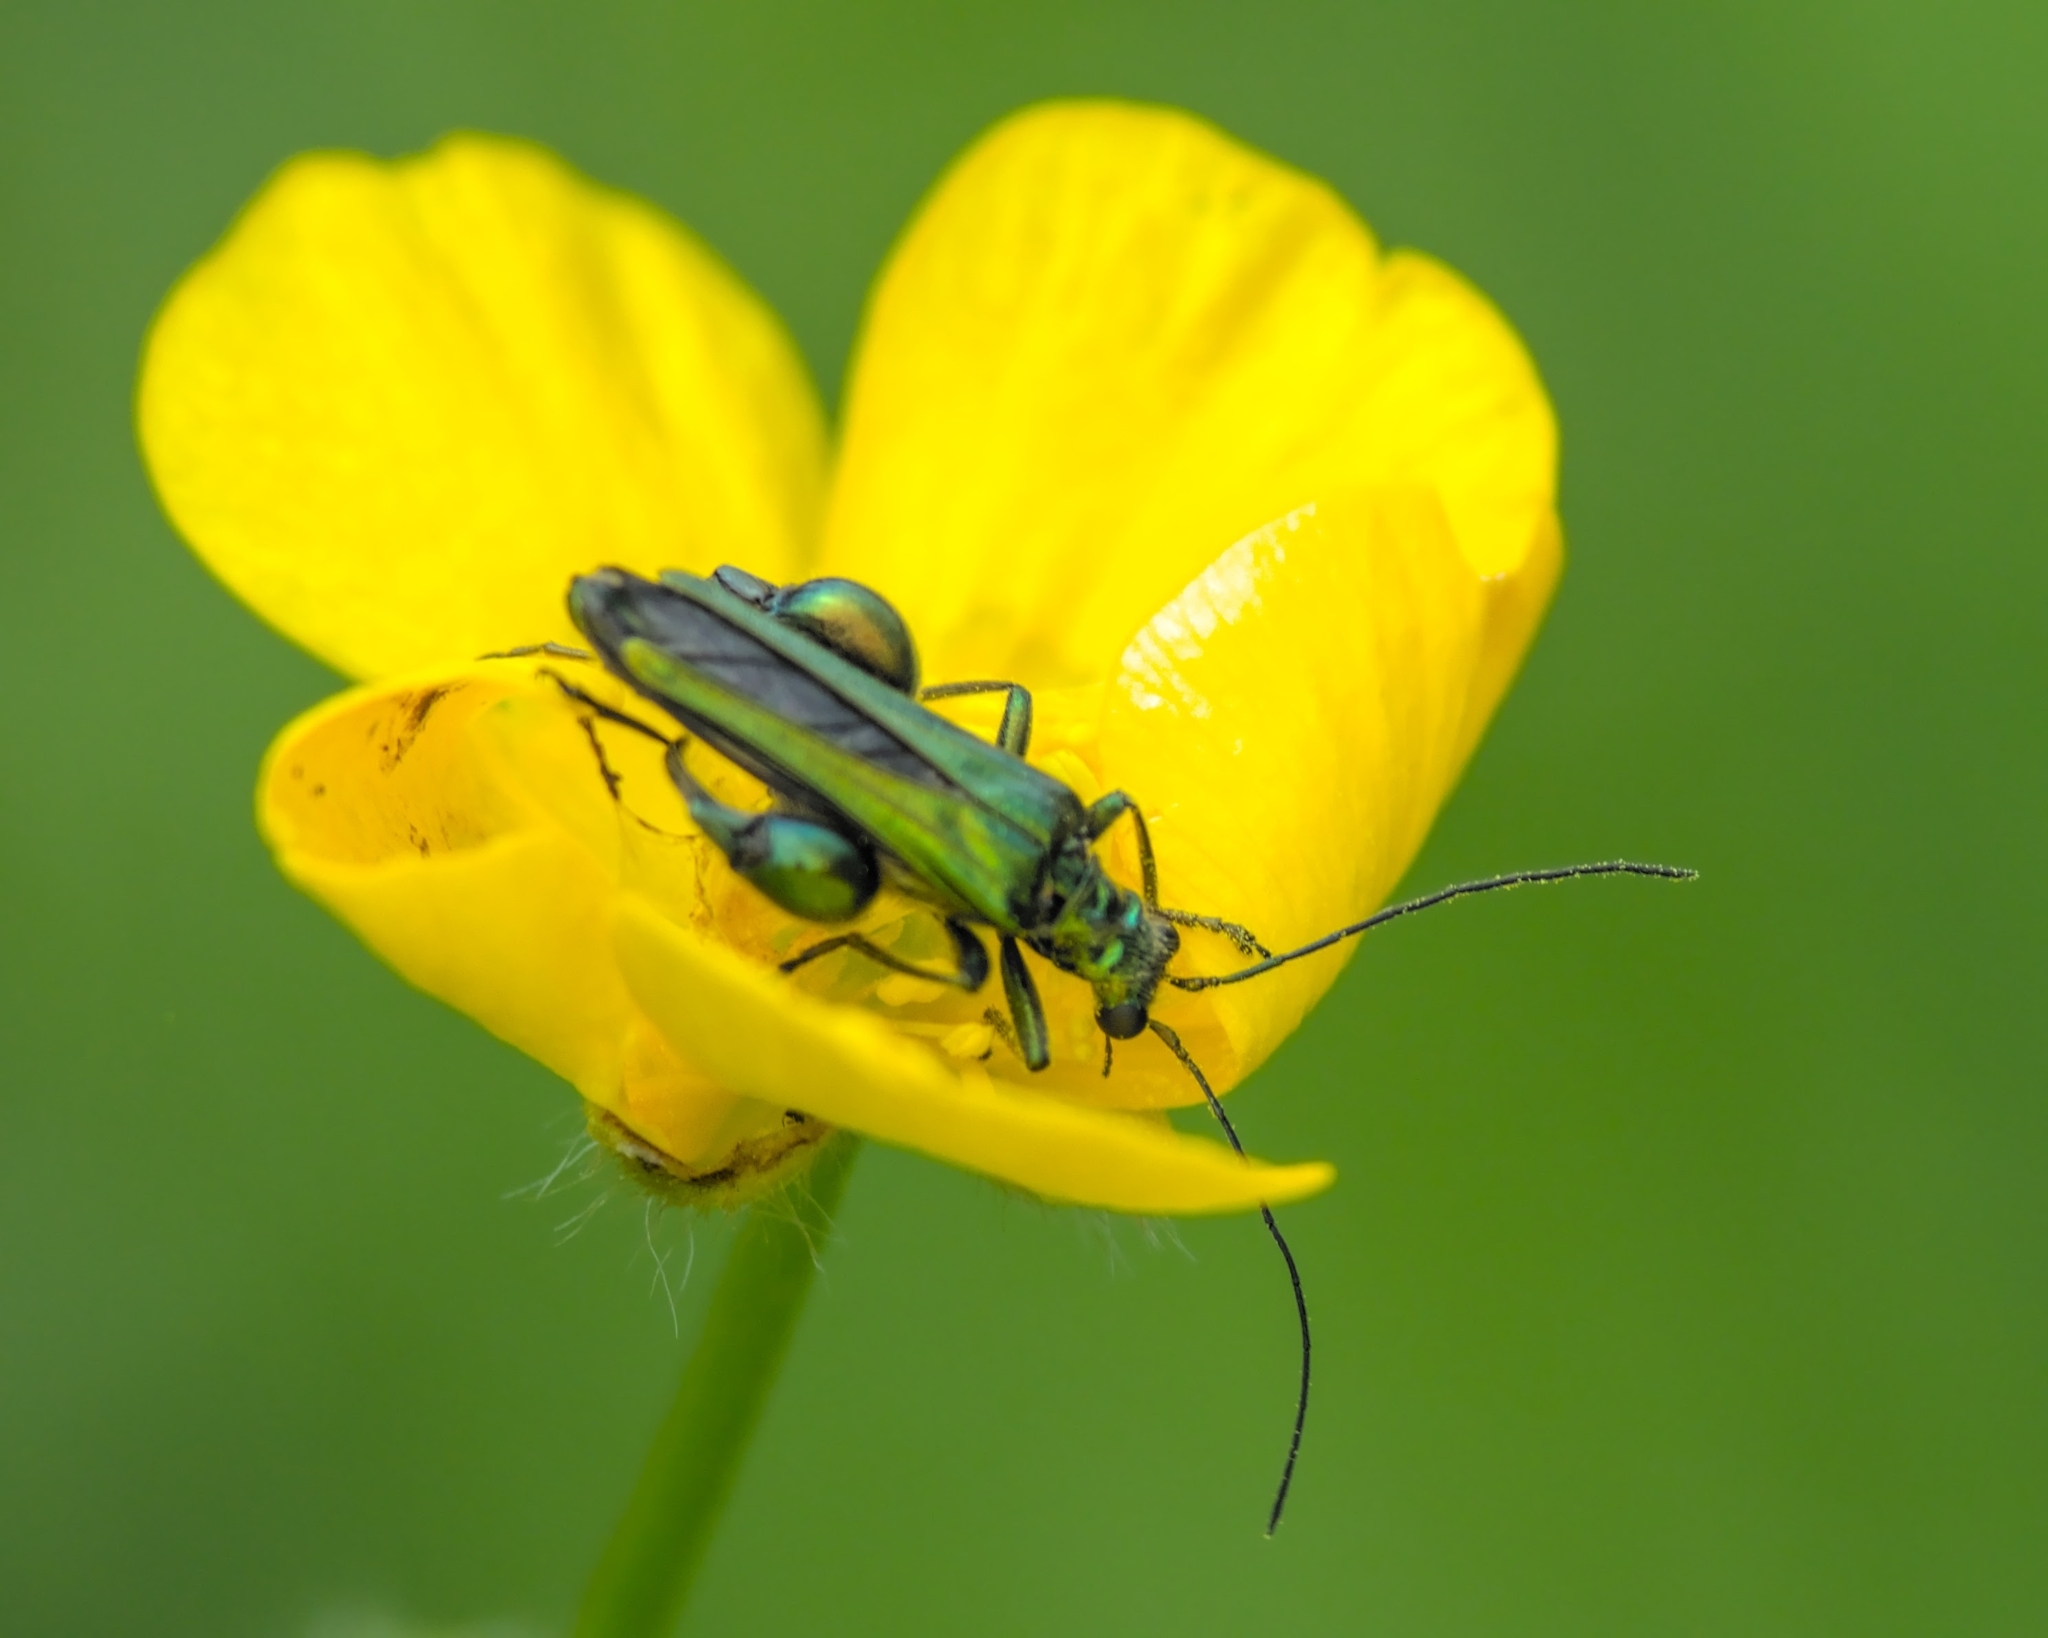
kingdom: Animalia
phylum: Arthropoda
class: Insecta
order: Coleoptera
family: Oedemeridae
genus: Oedemera
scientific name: Oedemera nobilis
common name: Swollen-thighed beetle
